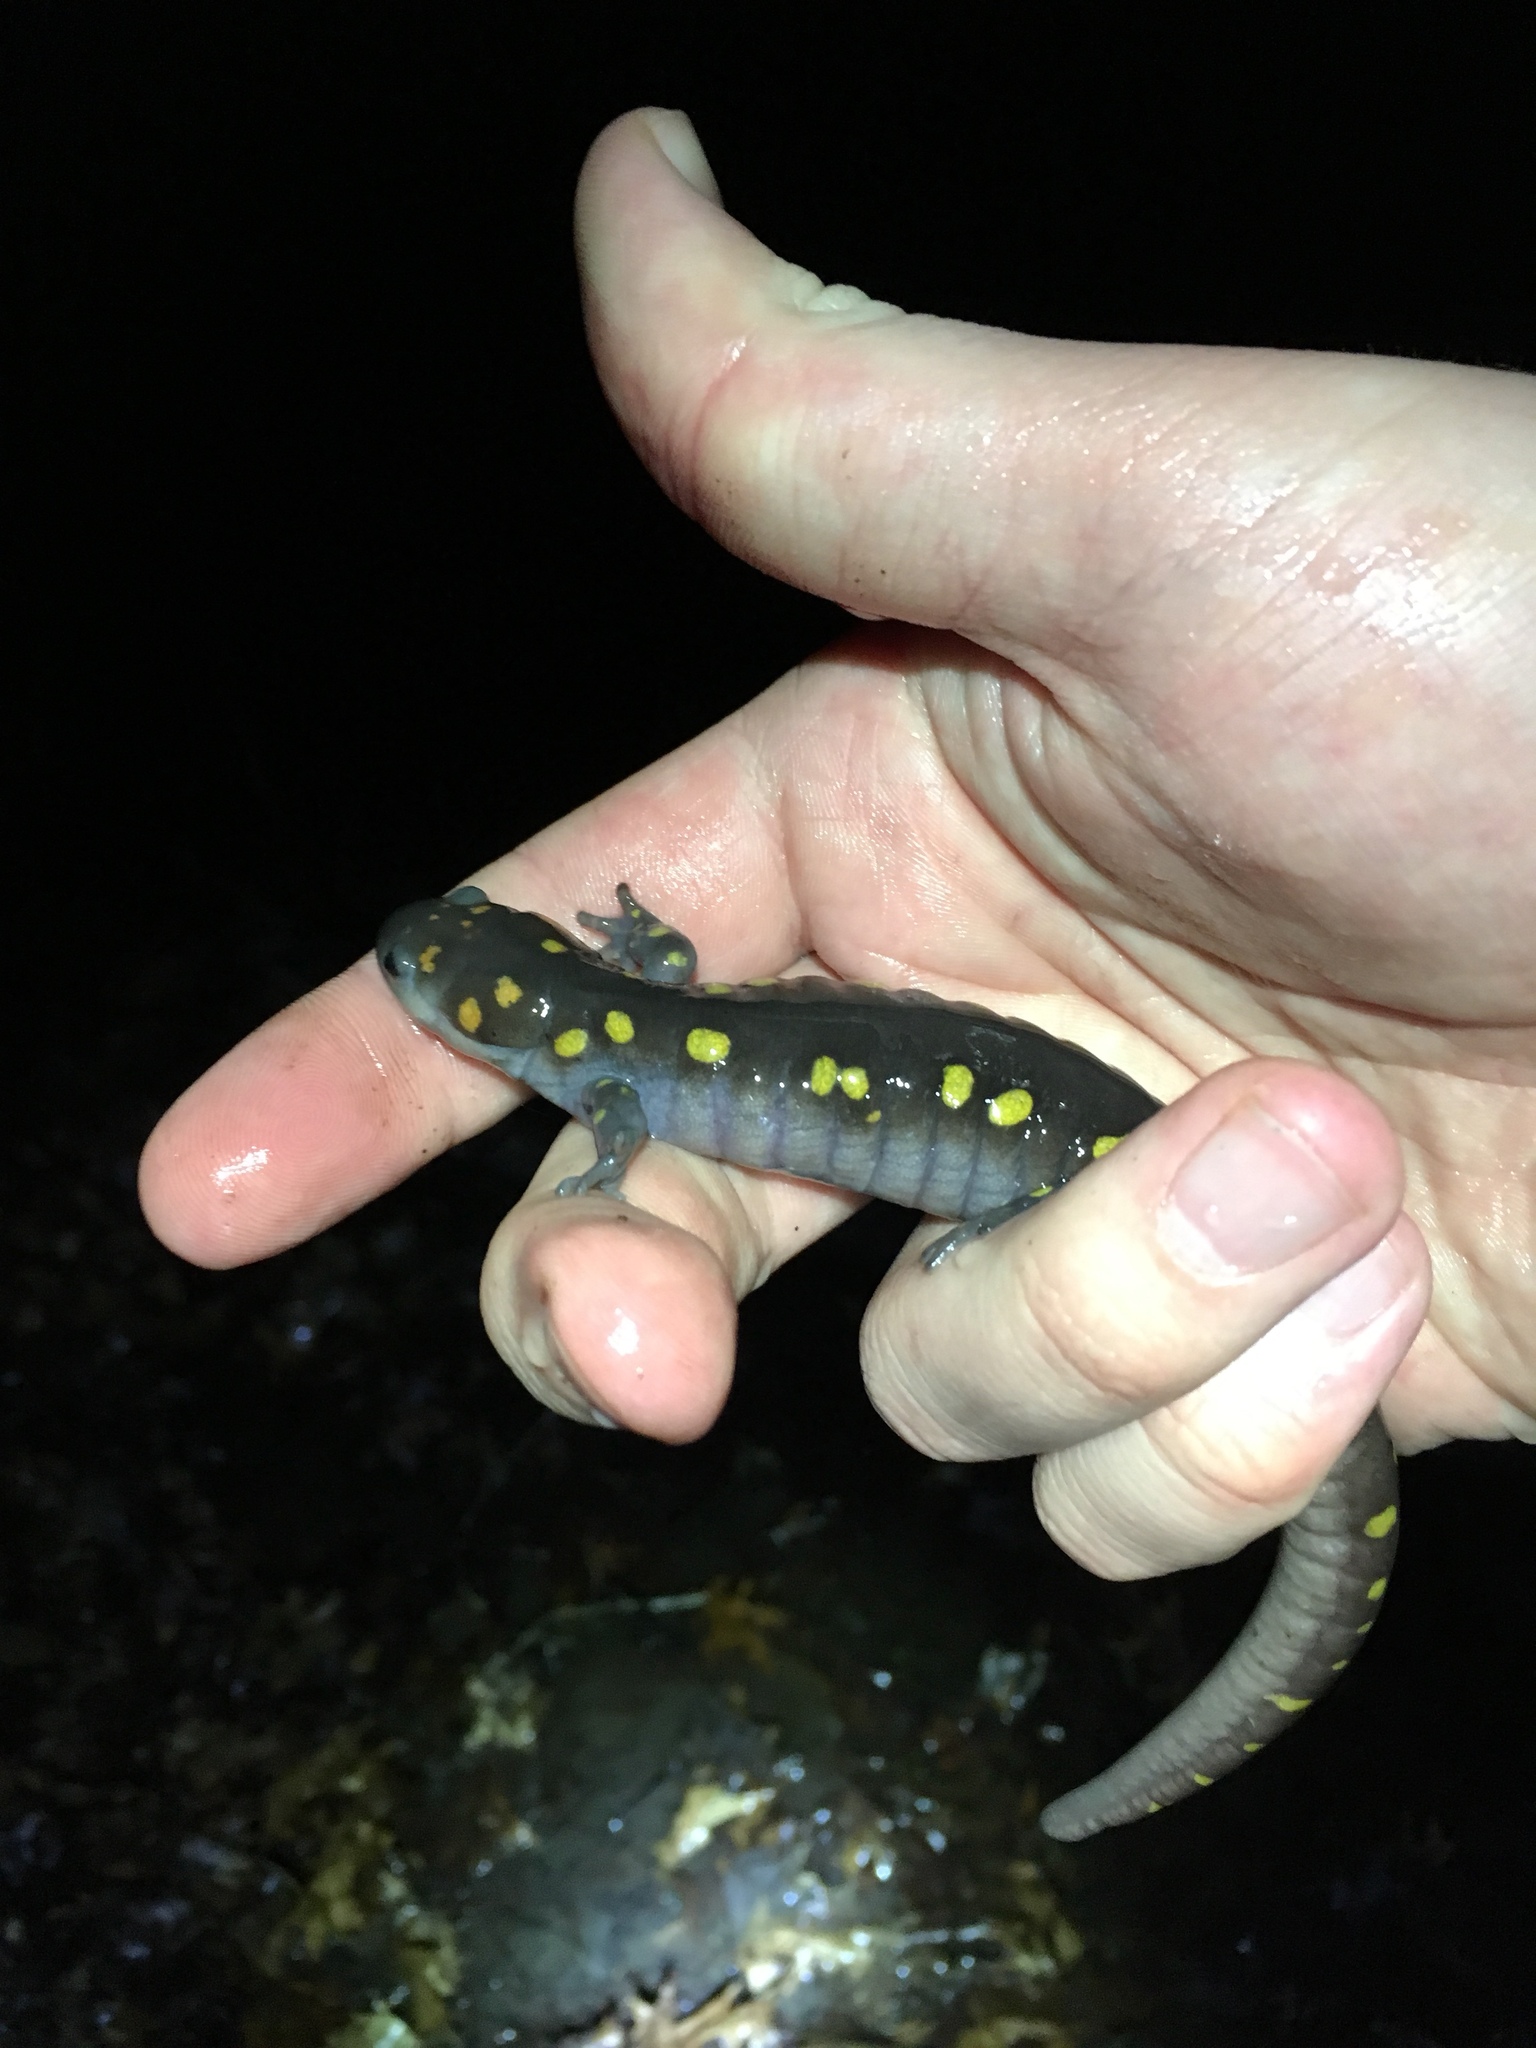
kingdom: Animalia
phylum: Chordata
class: Amphibia
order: Caudata
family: Ambystomatidae
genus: Ambystoma
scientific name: Ambystoma maculatum
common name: Spotted salamander
